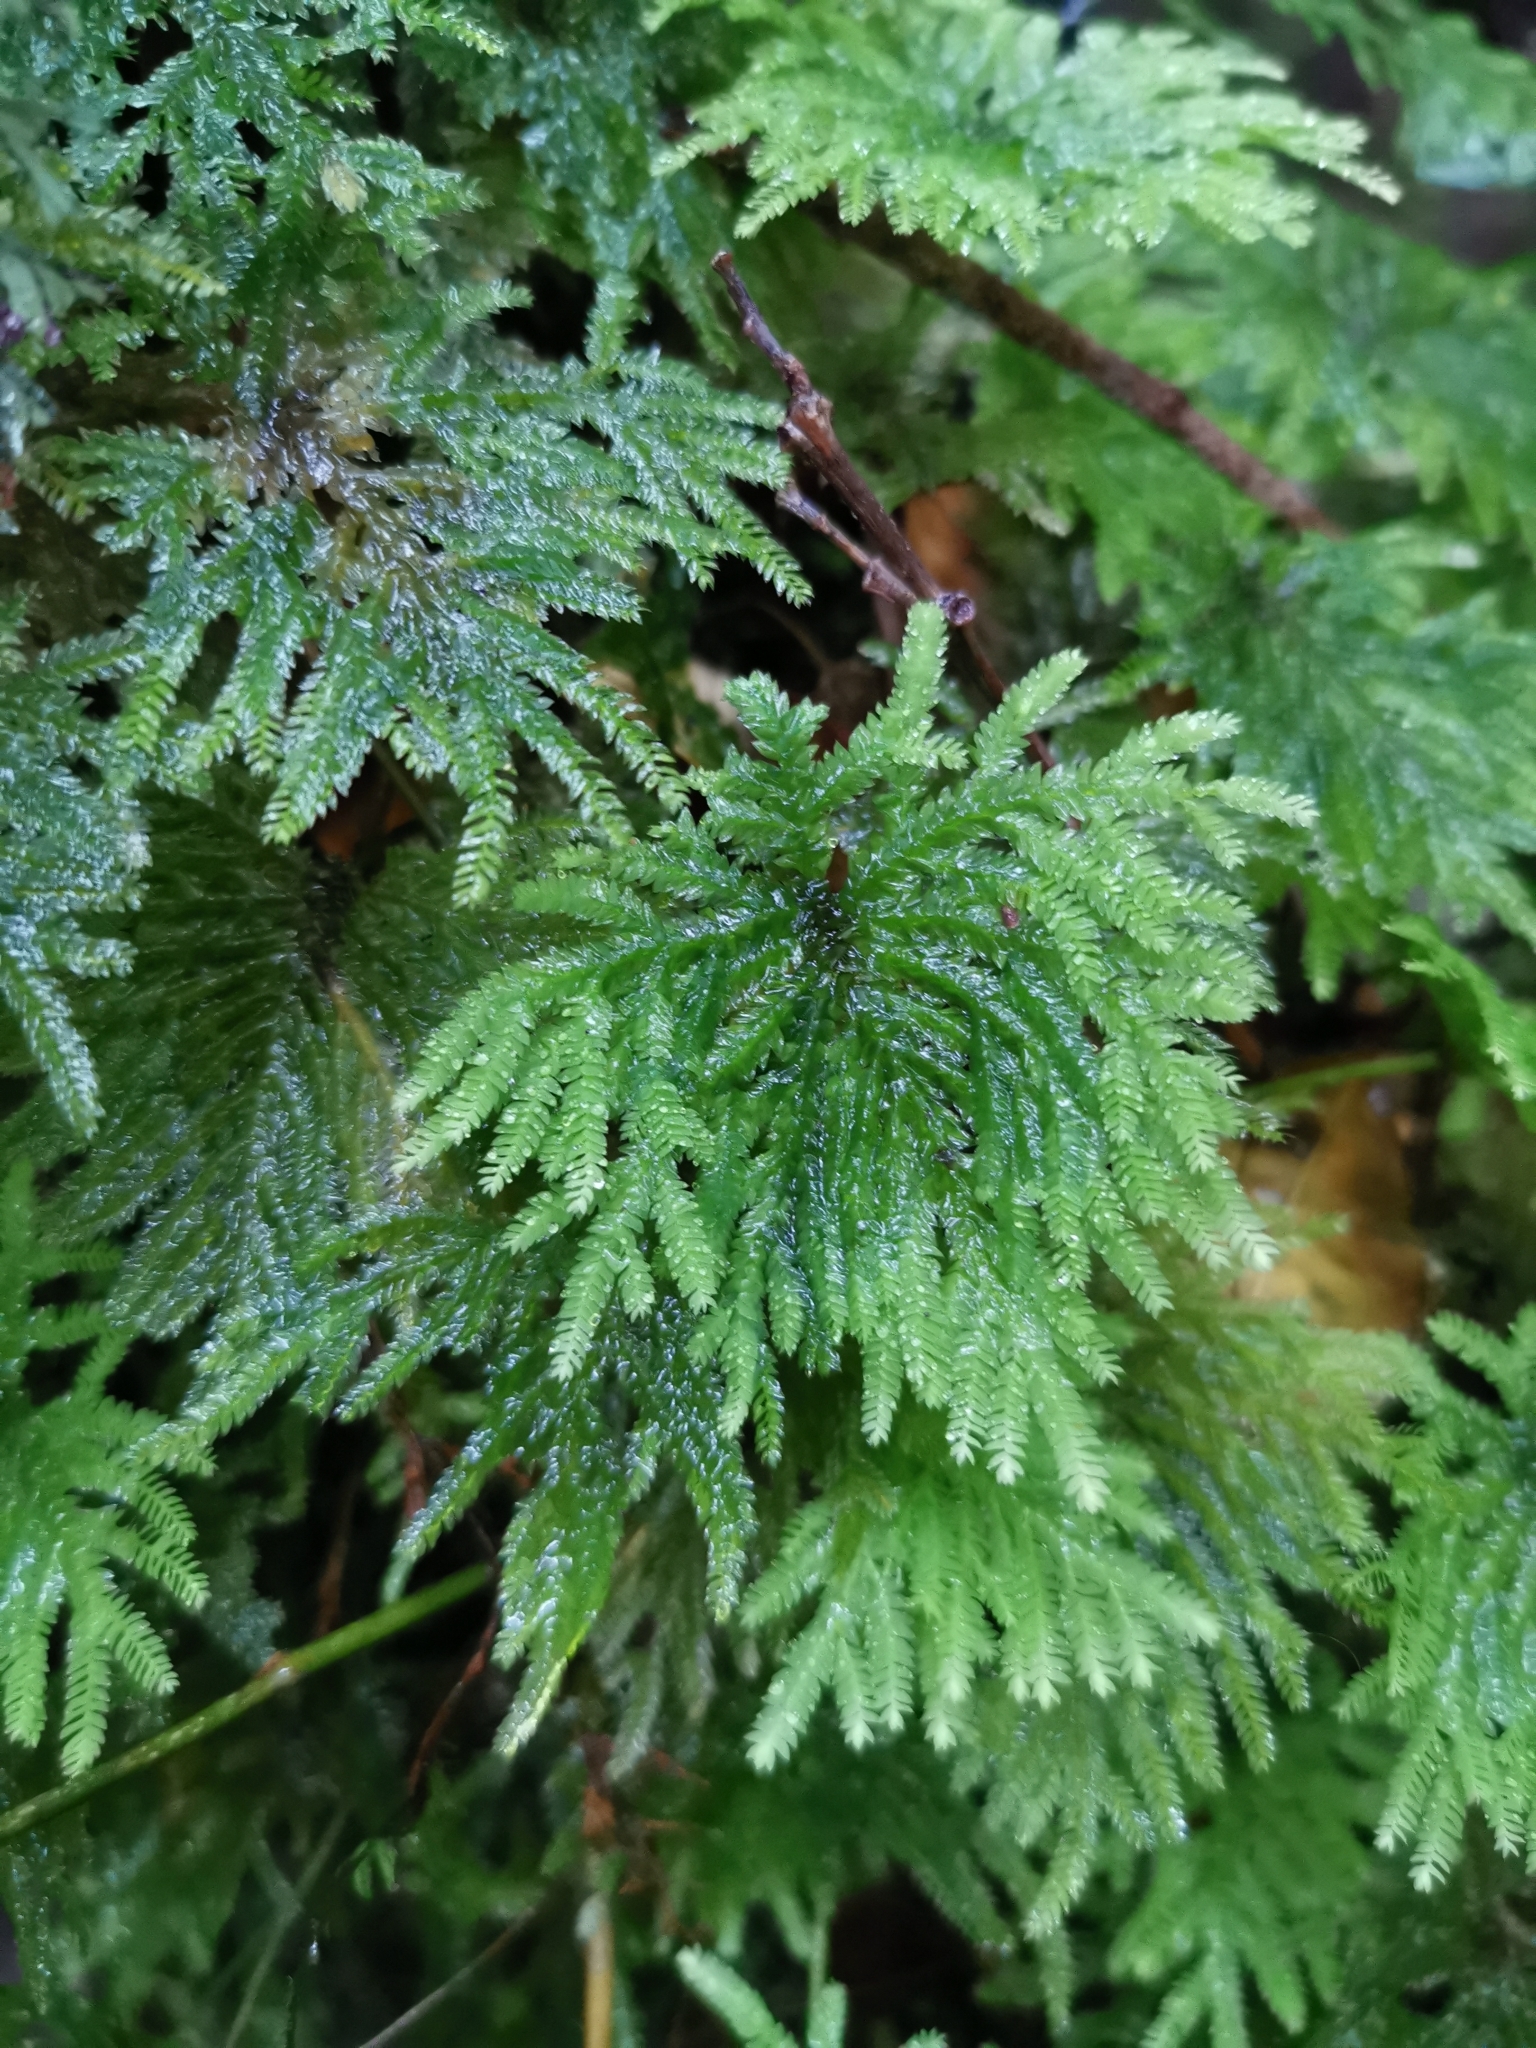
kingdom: Plantae
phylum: Bryophyta
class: Bryopsida
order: Hypopterygiales
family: Hypopterygiaceae
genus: Arbusculohypopterygium
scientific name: Arbusculohypopterygium arbuscula
